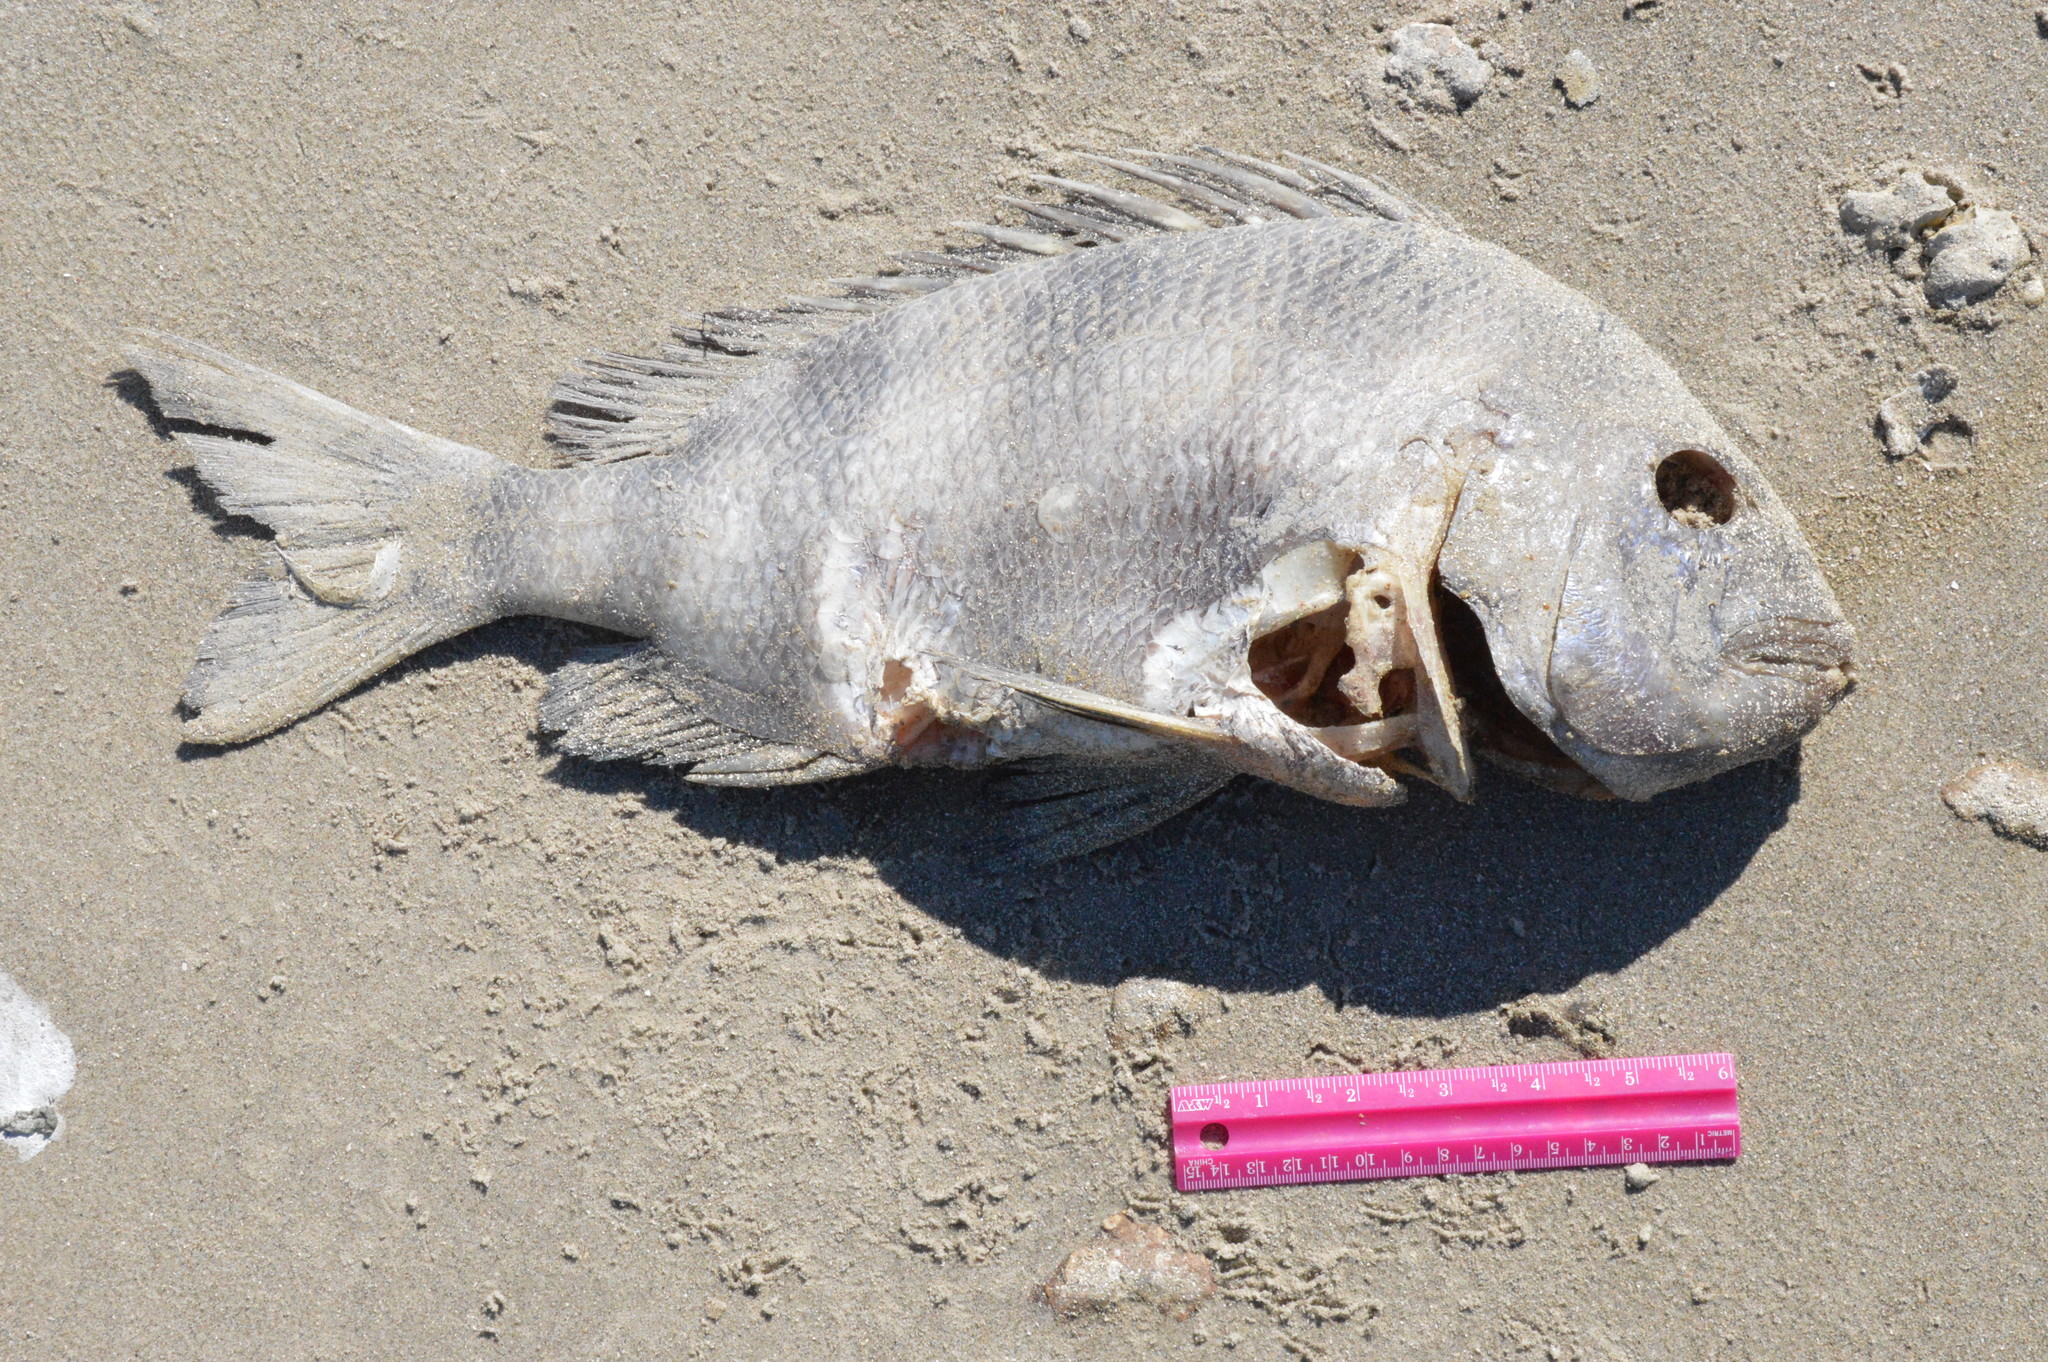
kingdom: Animalia
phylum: Chordata
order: Perciformes
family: Sparidae
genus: Archosargus
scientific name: Archosargus probatocephalus
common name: Sheepshead
